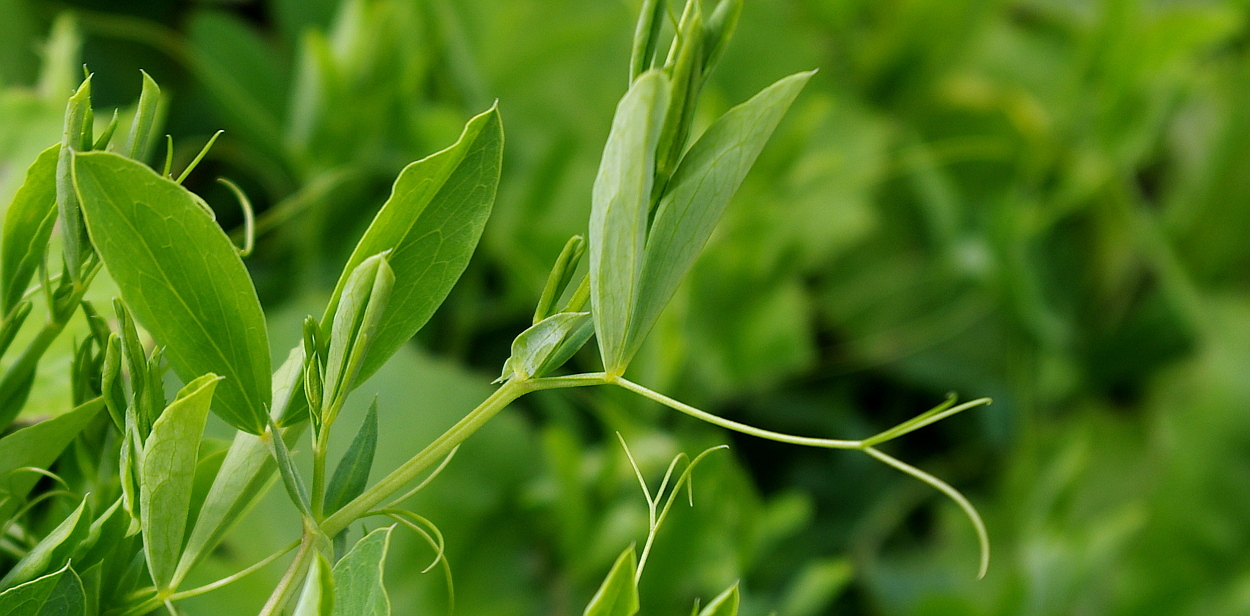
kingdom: Plantae
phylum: Tracheophyta
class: Magnoliopsida
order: Fabales
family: Fabaceae
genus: Lathyrus
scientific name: Lathyrus tuberosus
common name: Tuberous pea
